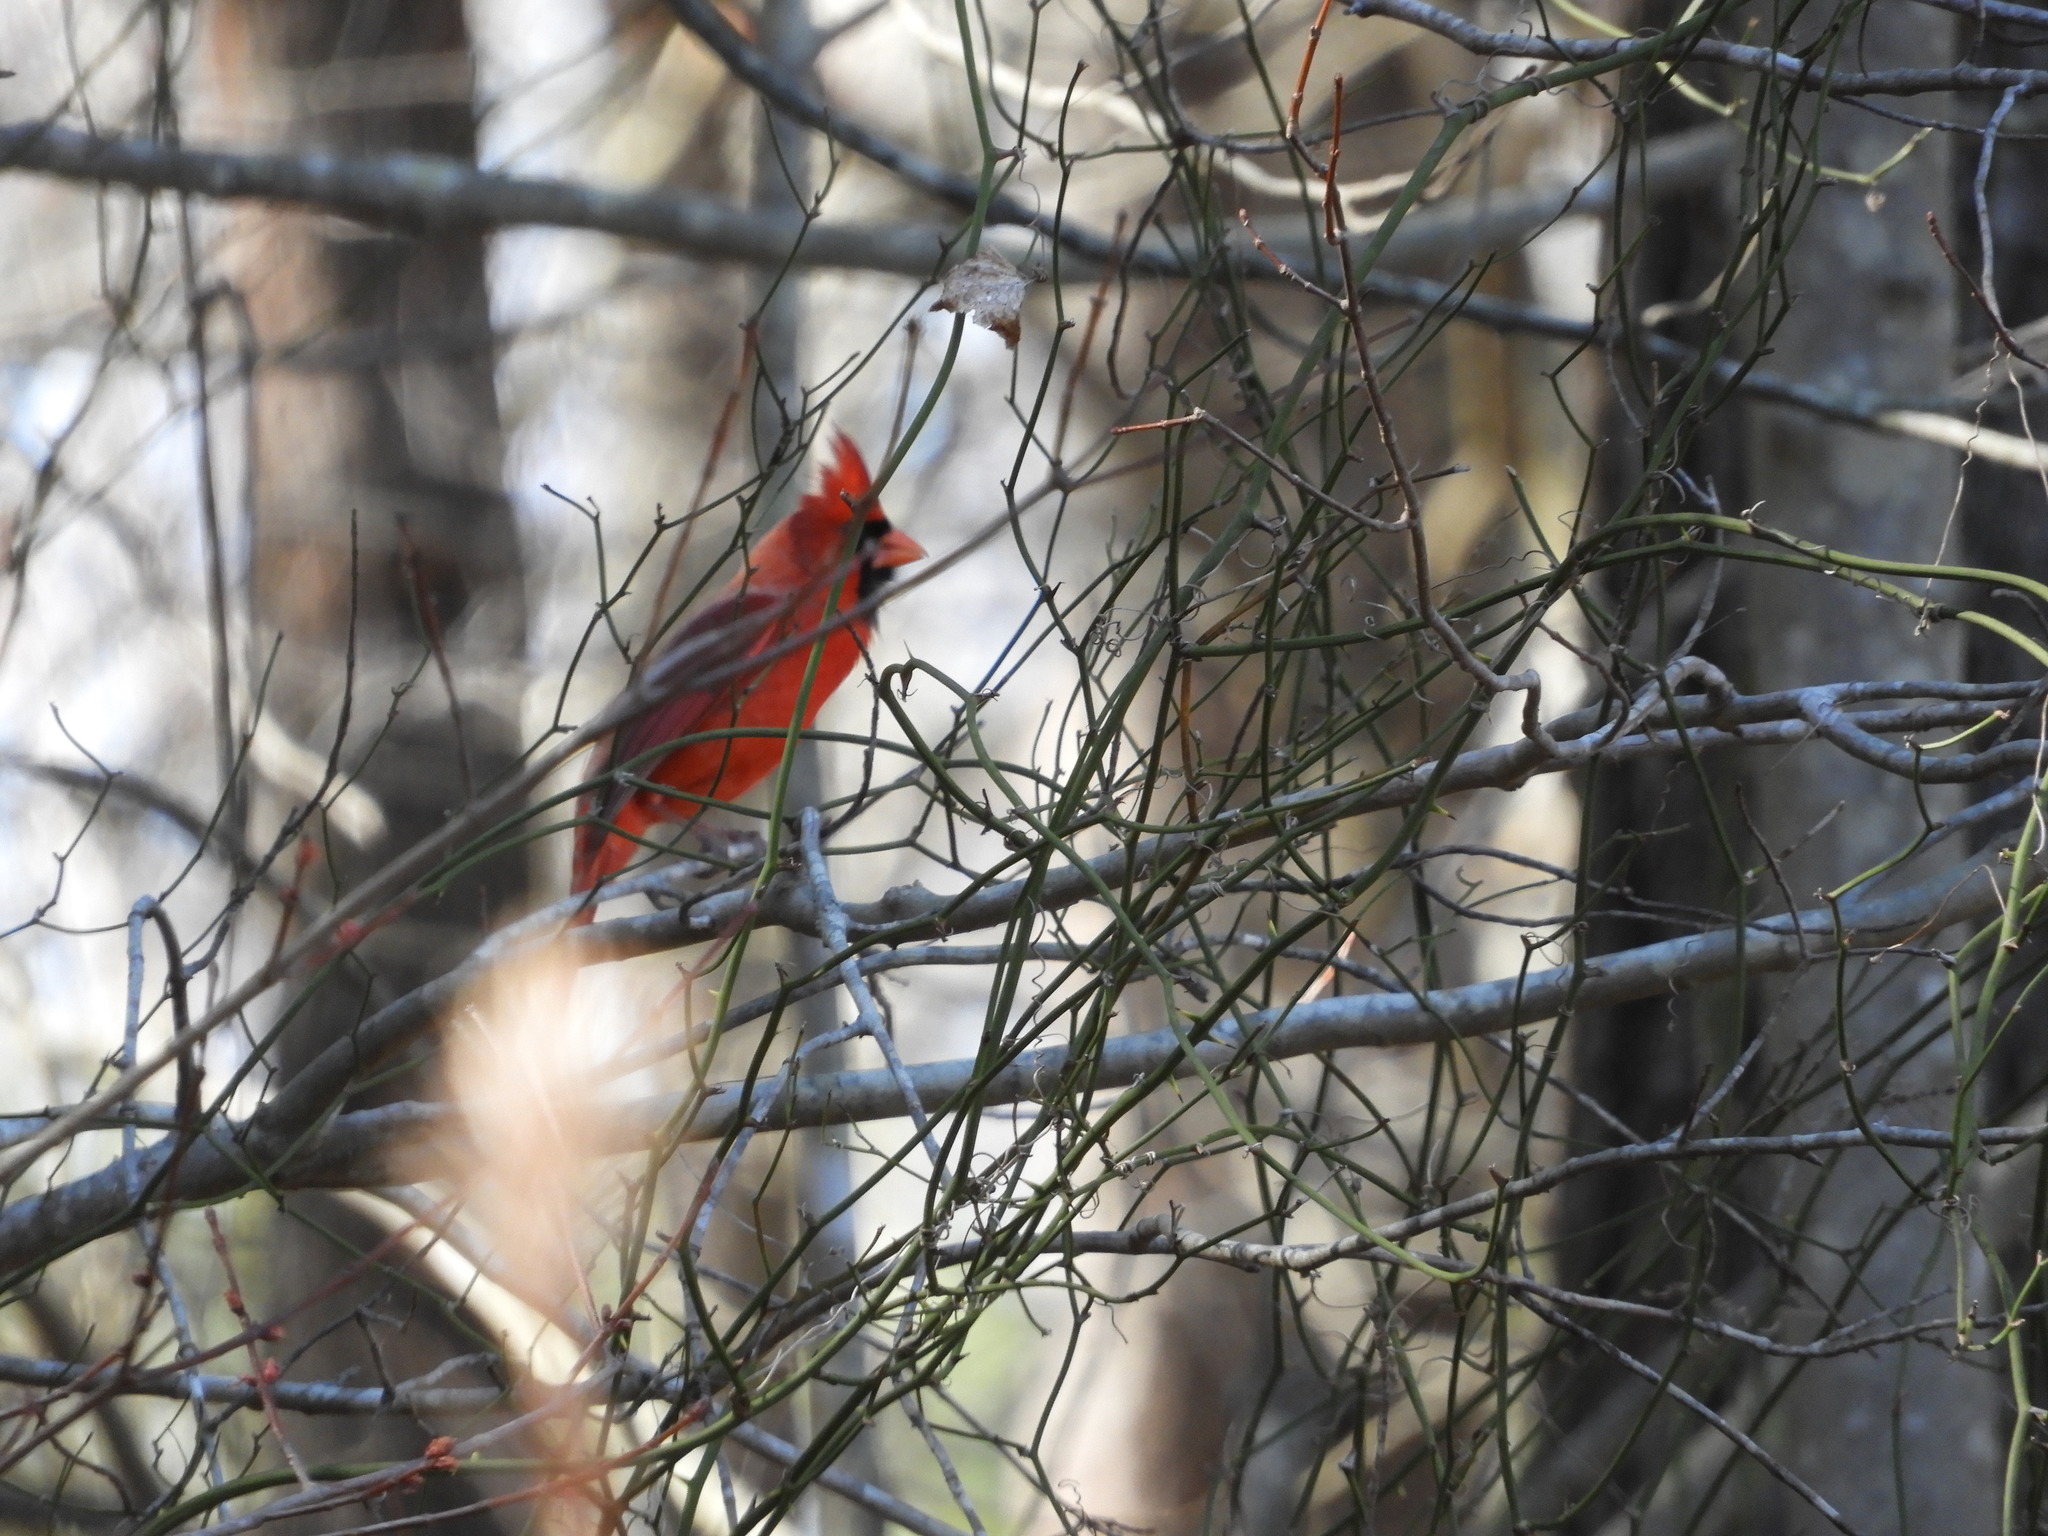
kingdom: Animalia
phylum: Chordata
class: Aves
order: Passeriformes
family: Cardinalidae
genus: Cardinalis
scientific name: Cardinalis cardinalis
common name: Northern cardinal
